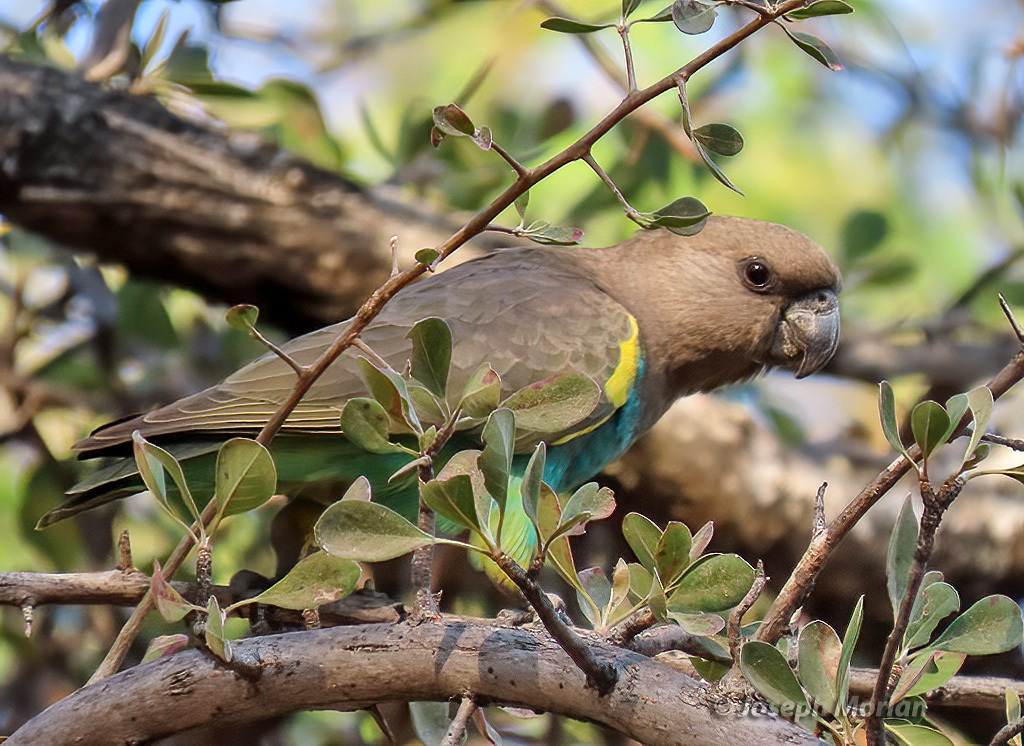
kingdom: Animalia
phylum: Chordata
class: Aves
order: Psittaciformes
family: Psittacidae
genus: Poicephalus
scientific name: Poicephalus meyeri
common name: Meyer's parrot
